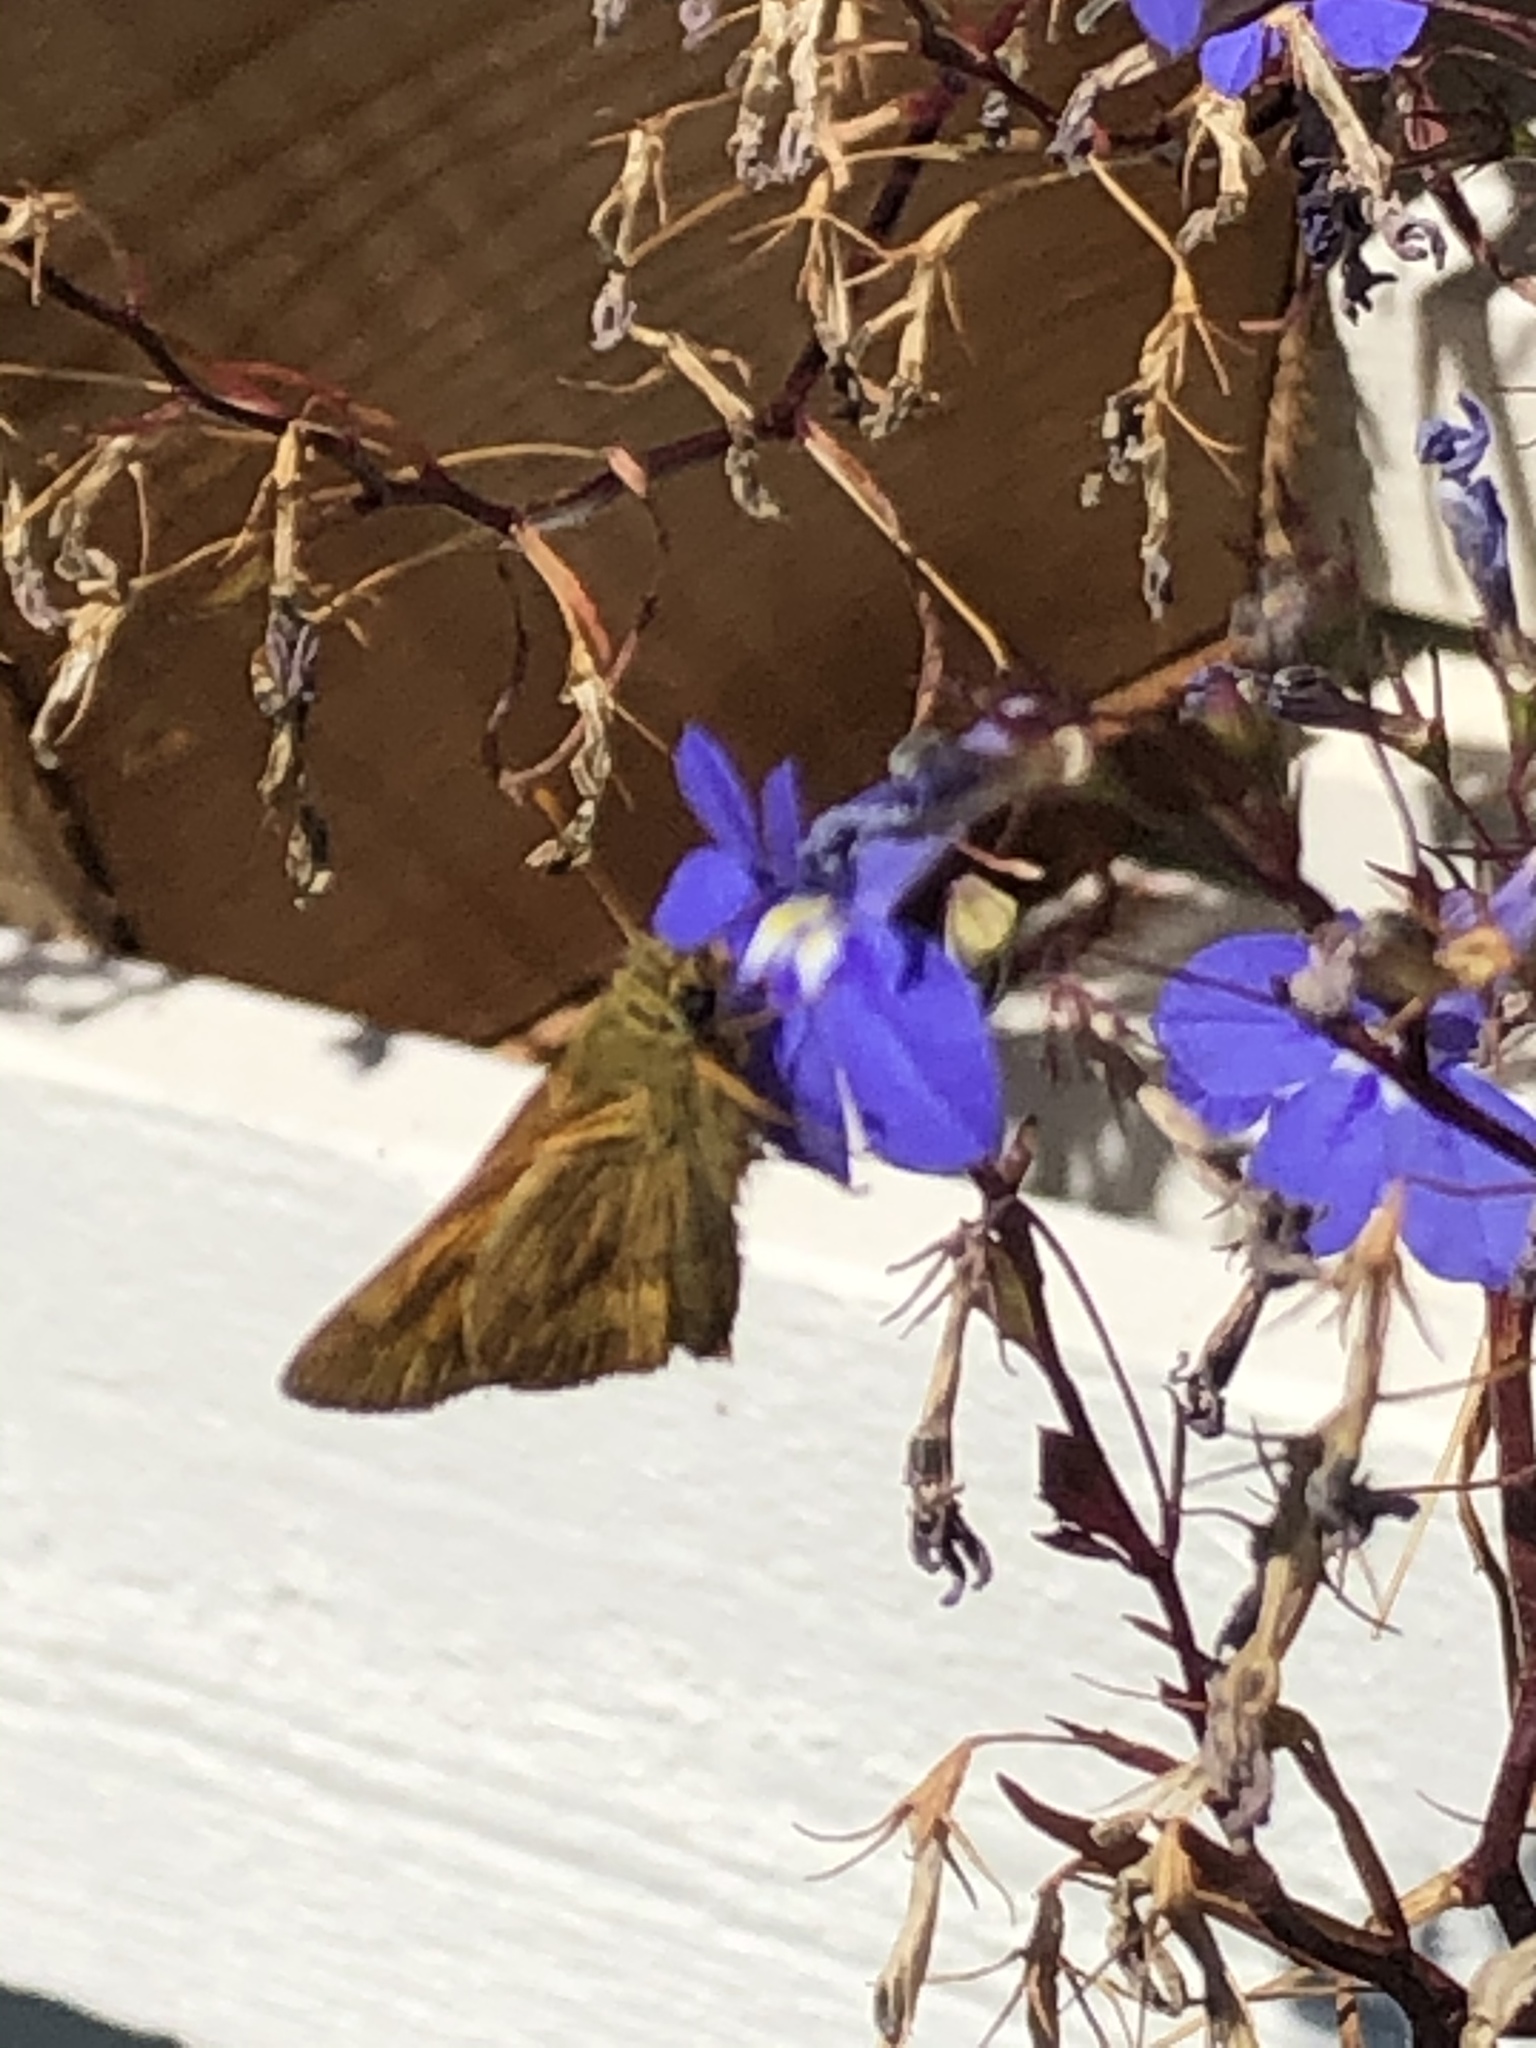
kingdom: Animalia
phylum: Arthropoda
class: Insecta
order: Lepidoptera
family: Hesperiidae
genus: Ochlodes
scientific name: Ochlodes sylvanoides
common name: Woodland skipper
